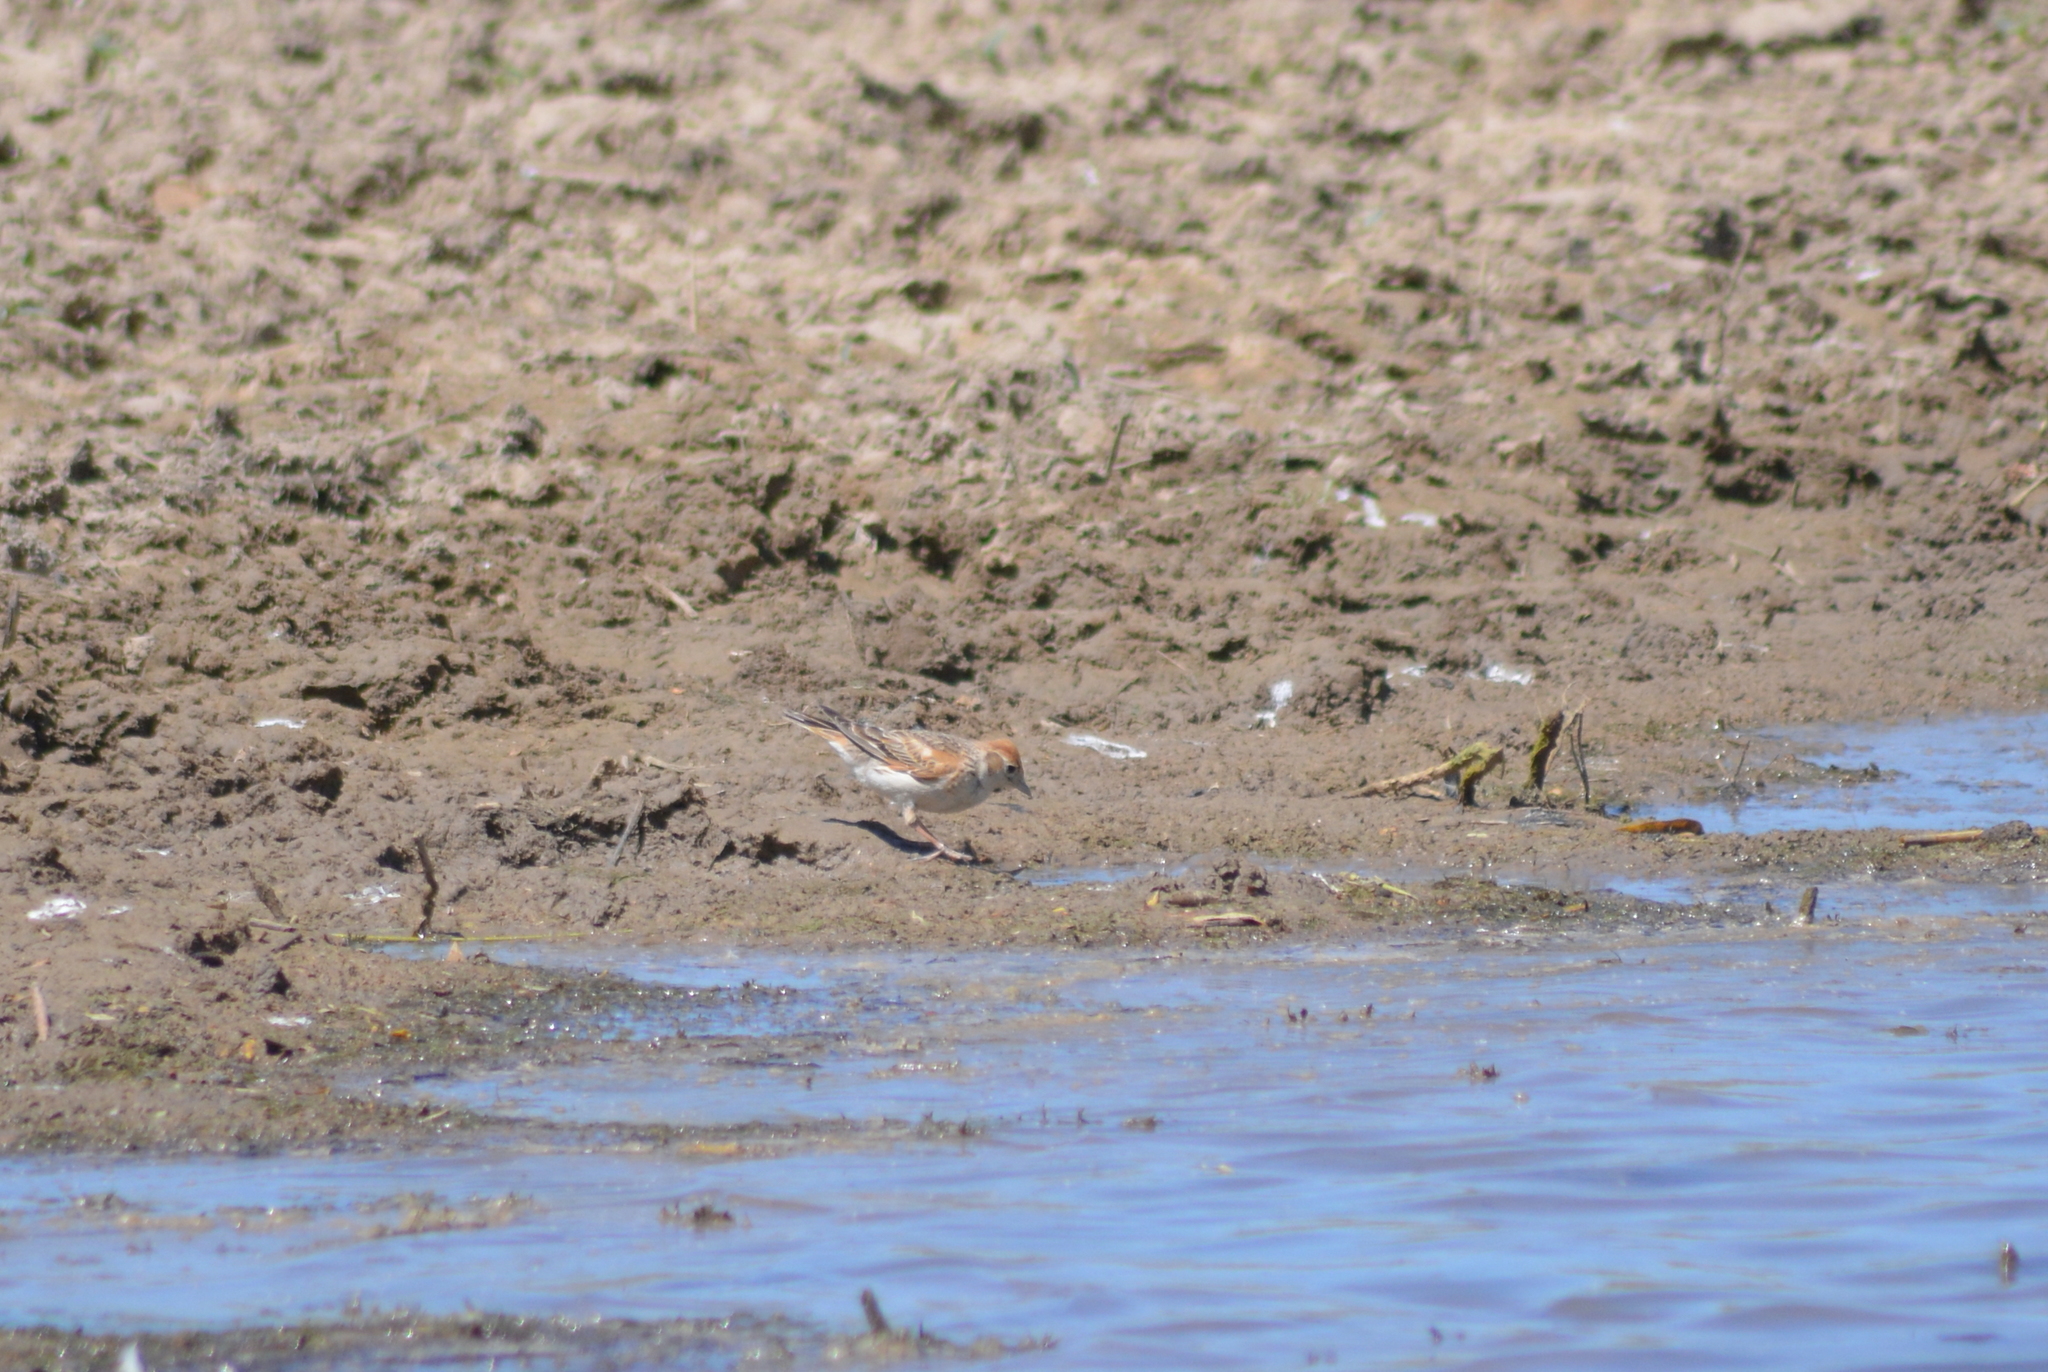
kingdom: Animalia
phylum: Chordata
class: Aves
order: Passeriformes
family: Alaudidae
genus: Melanocorypha
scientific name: Melanocorypha leucoptera
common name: White-winged lark
